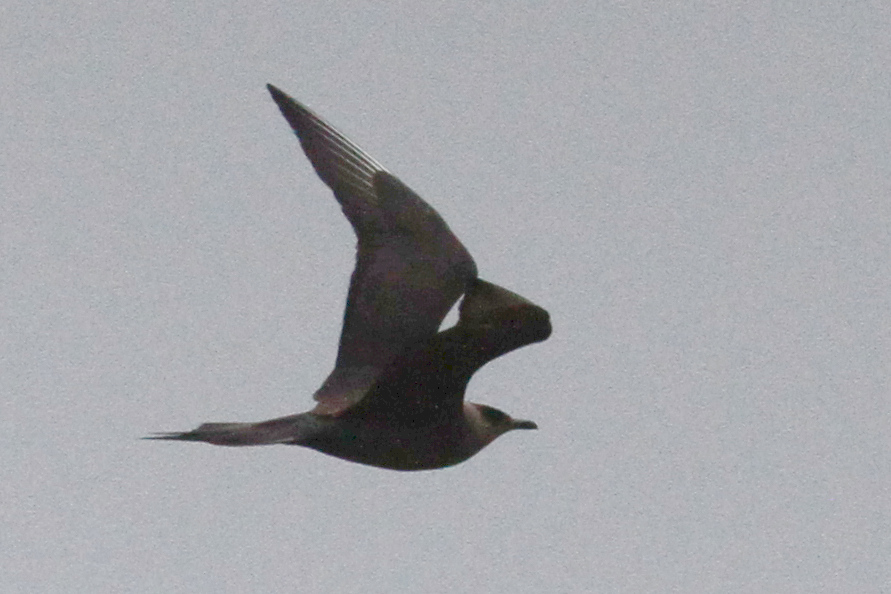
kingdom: Animalia
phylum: Chordata
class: Aves
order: Charadriiformes
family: Stercorariidae
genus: Stercorarius
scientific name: Stercorarius parasiticus
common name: Parasitic jaeger
